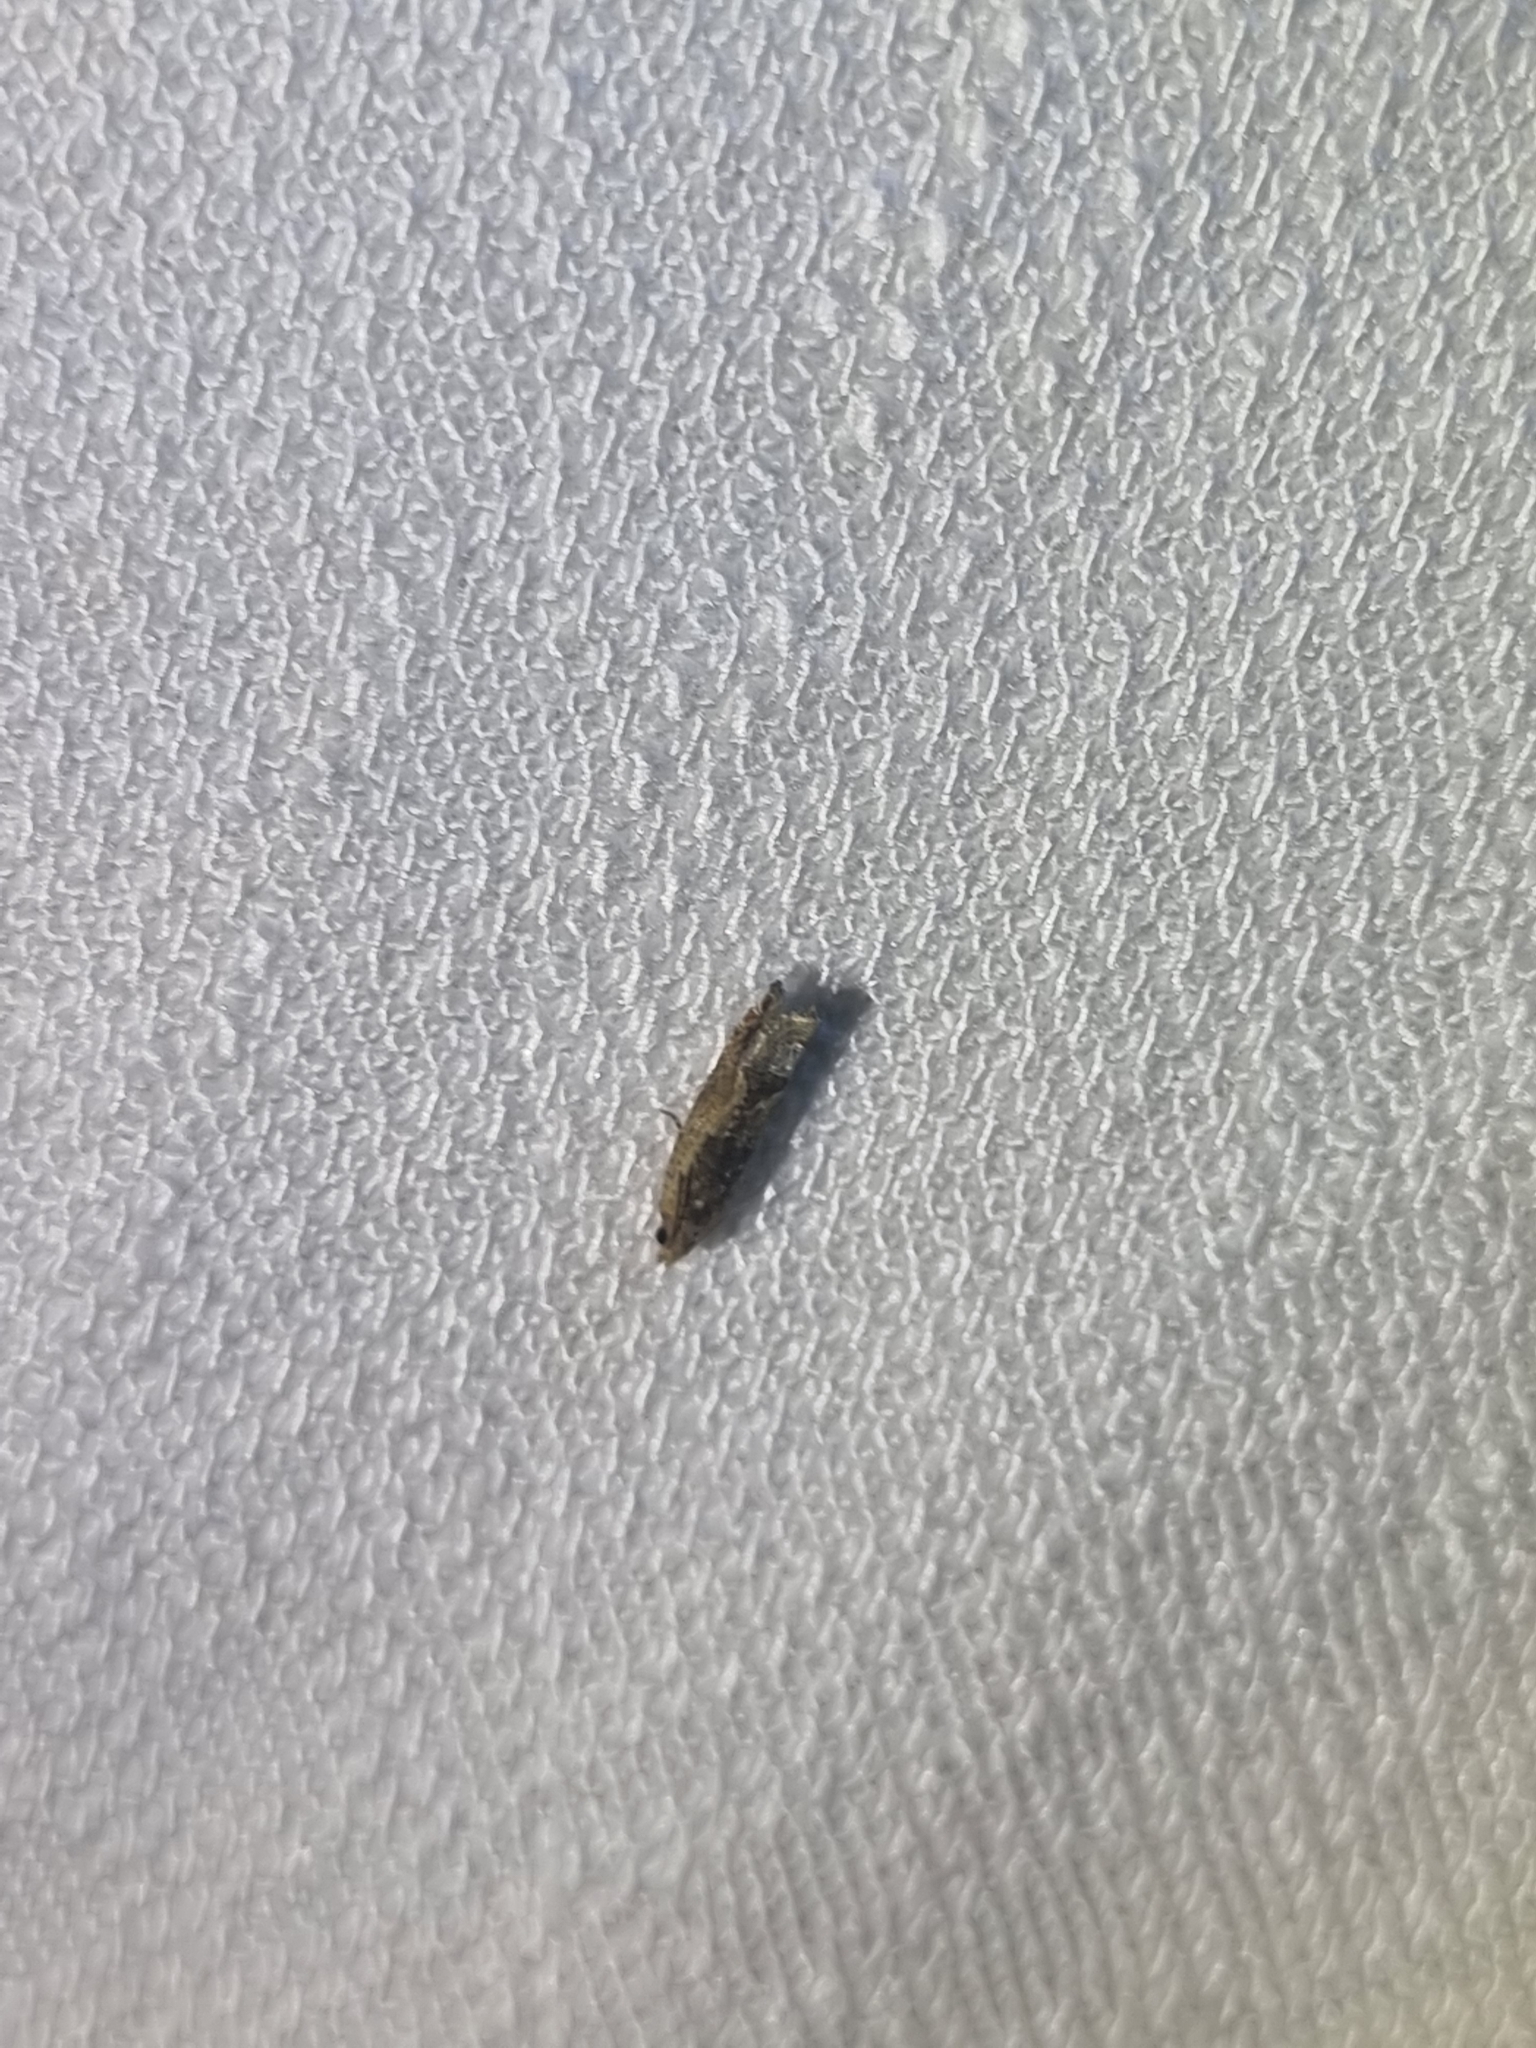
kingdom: Animalia
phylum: Arthropoda
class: Insecta
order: Lepidoptera
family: Tortricidae
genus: Crocidosema
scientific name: Crocidosema plebejana
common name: Southern bell
